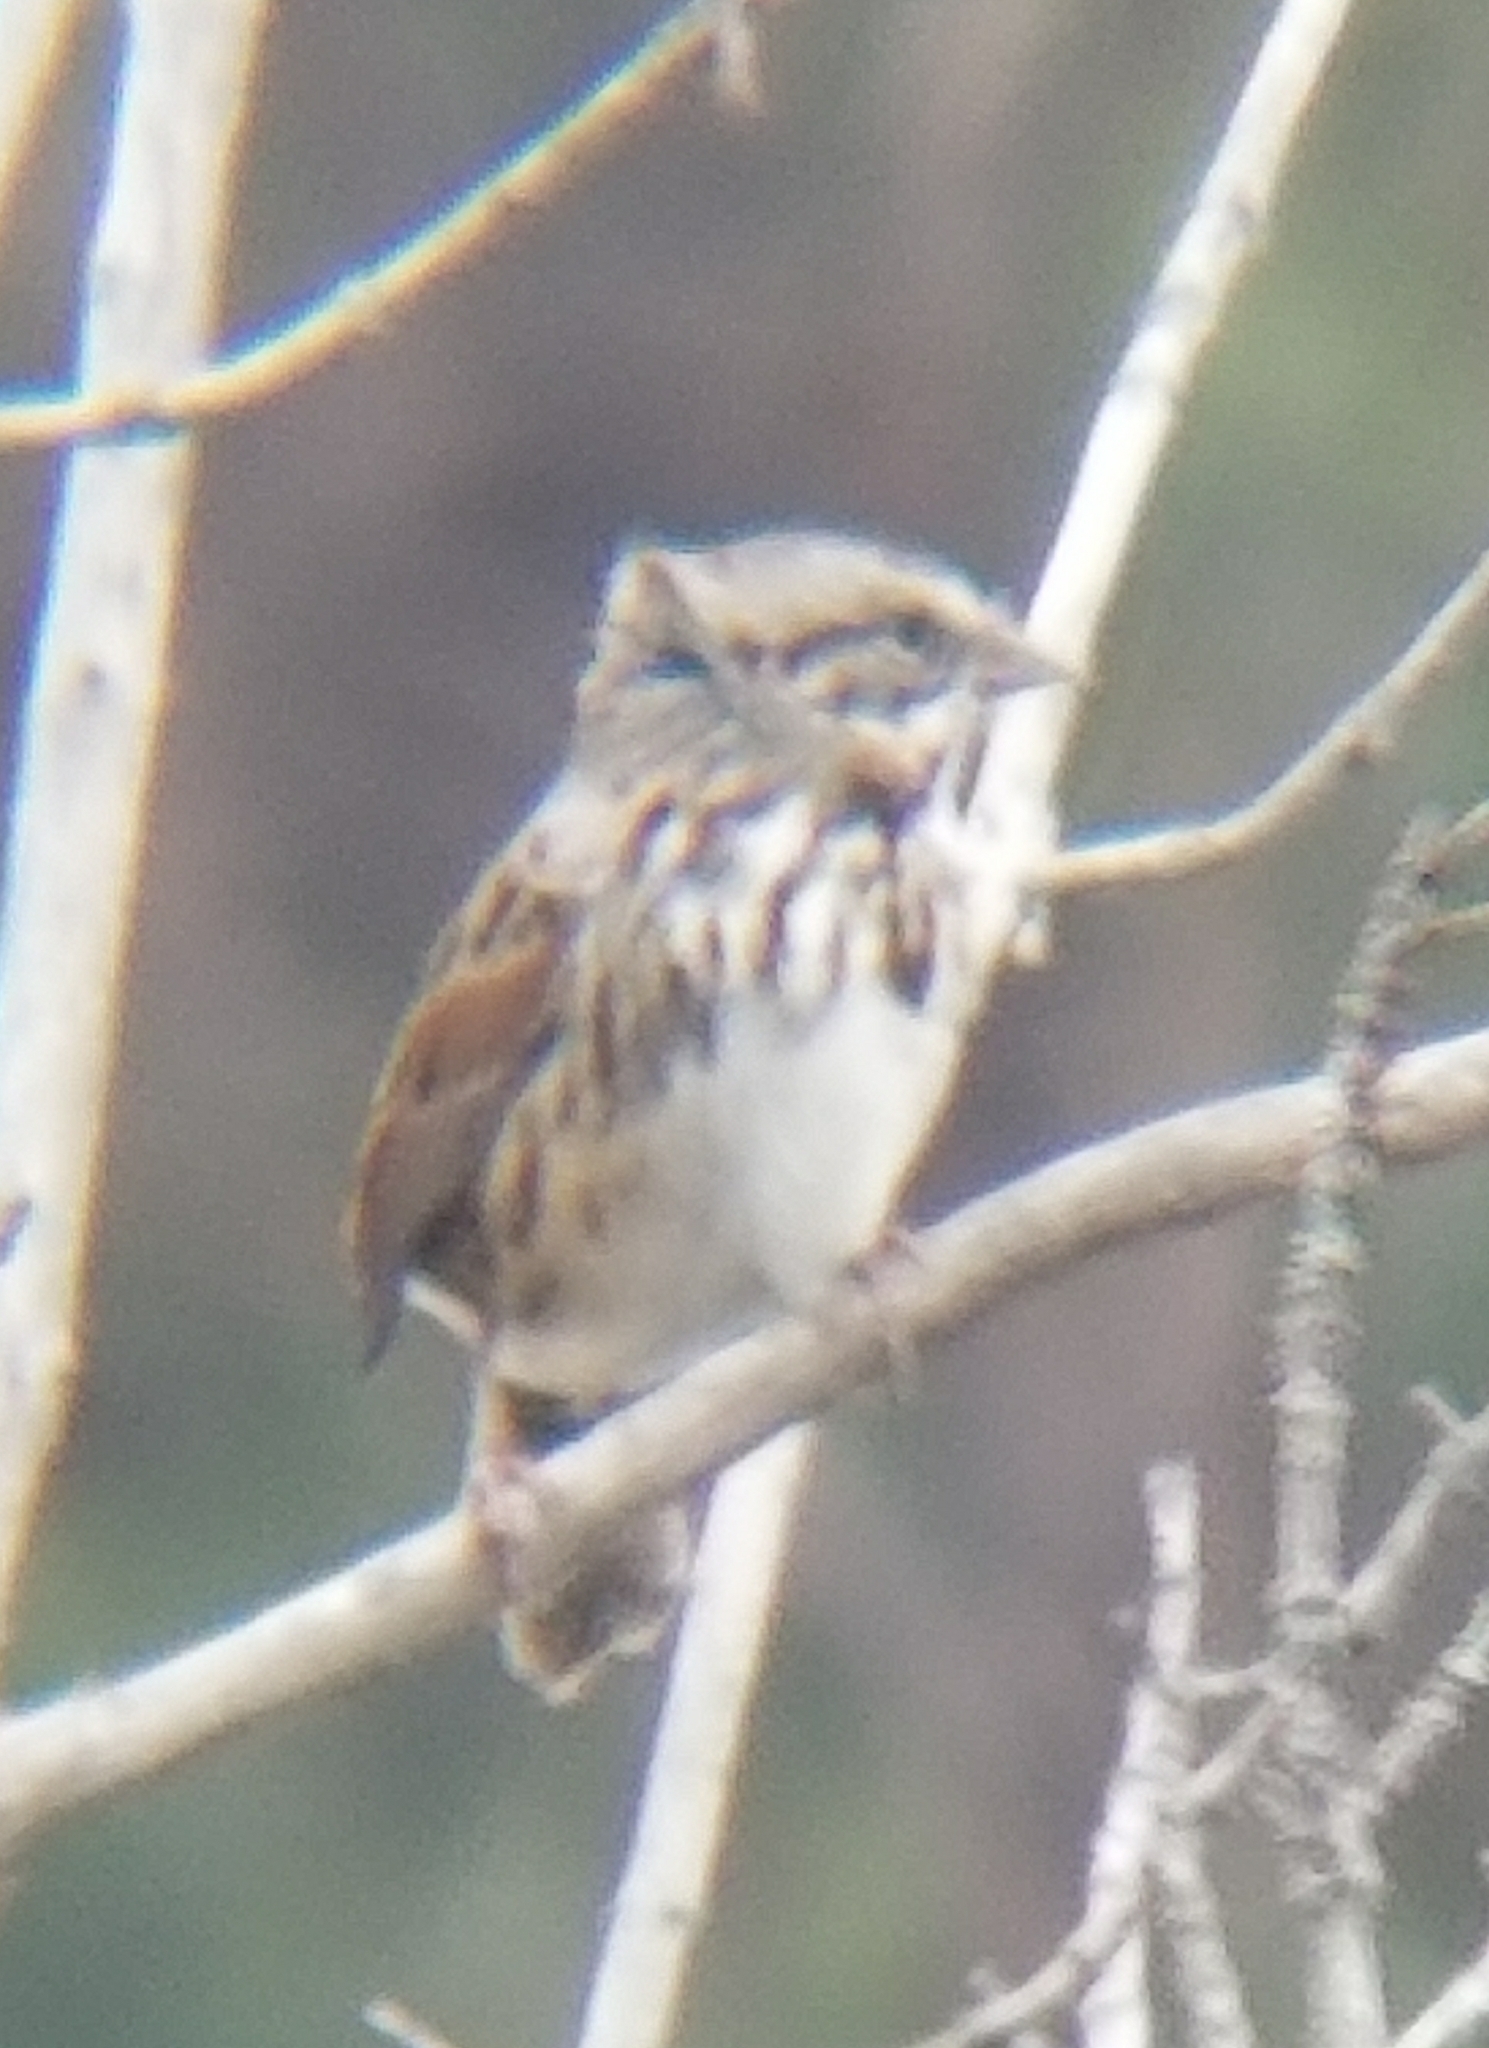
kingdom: Animalia
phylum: Chordata
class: Aves
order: Passeriformes
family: Passerellidae
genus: Melospiza
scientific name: Melospiza melodia
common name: Song sparrow
